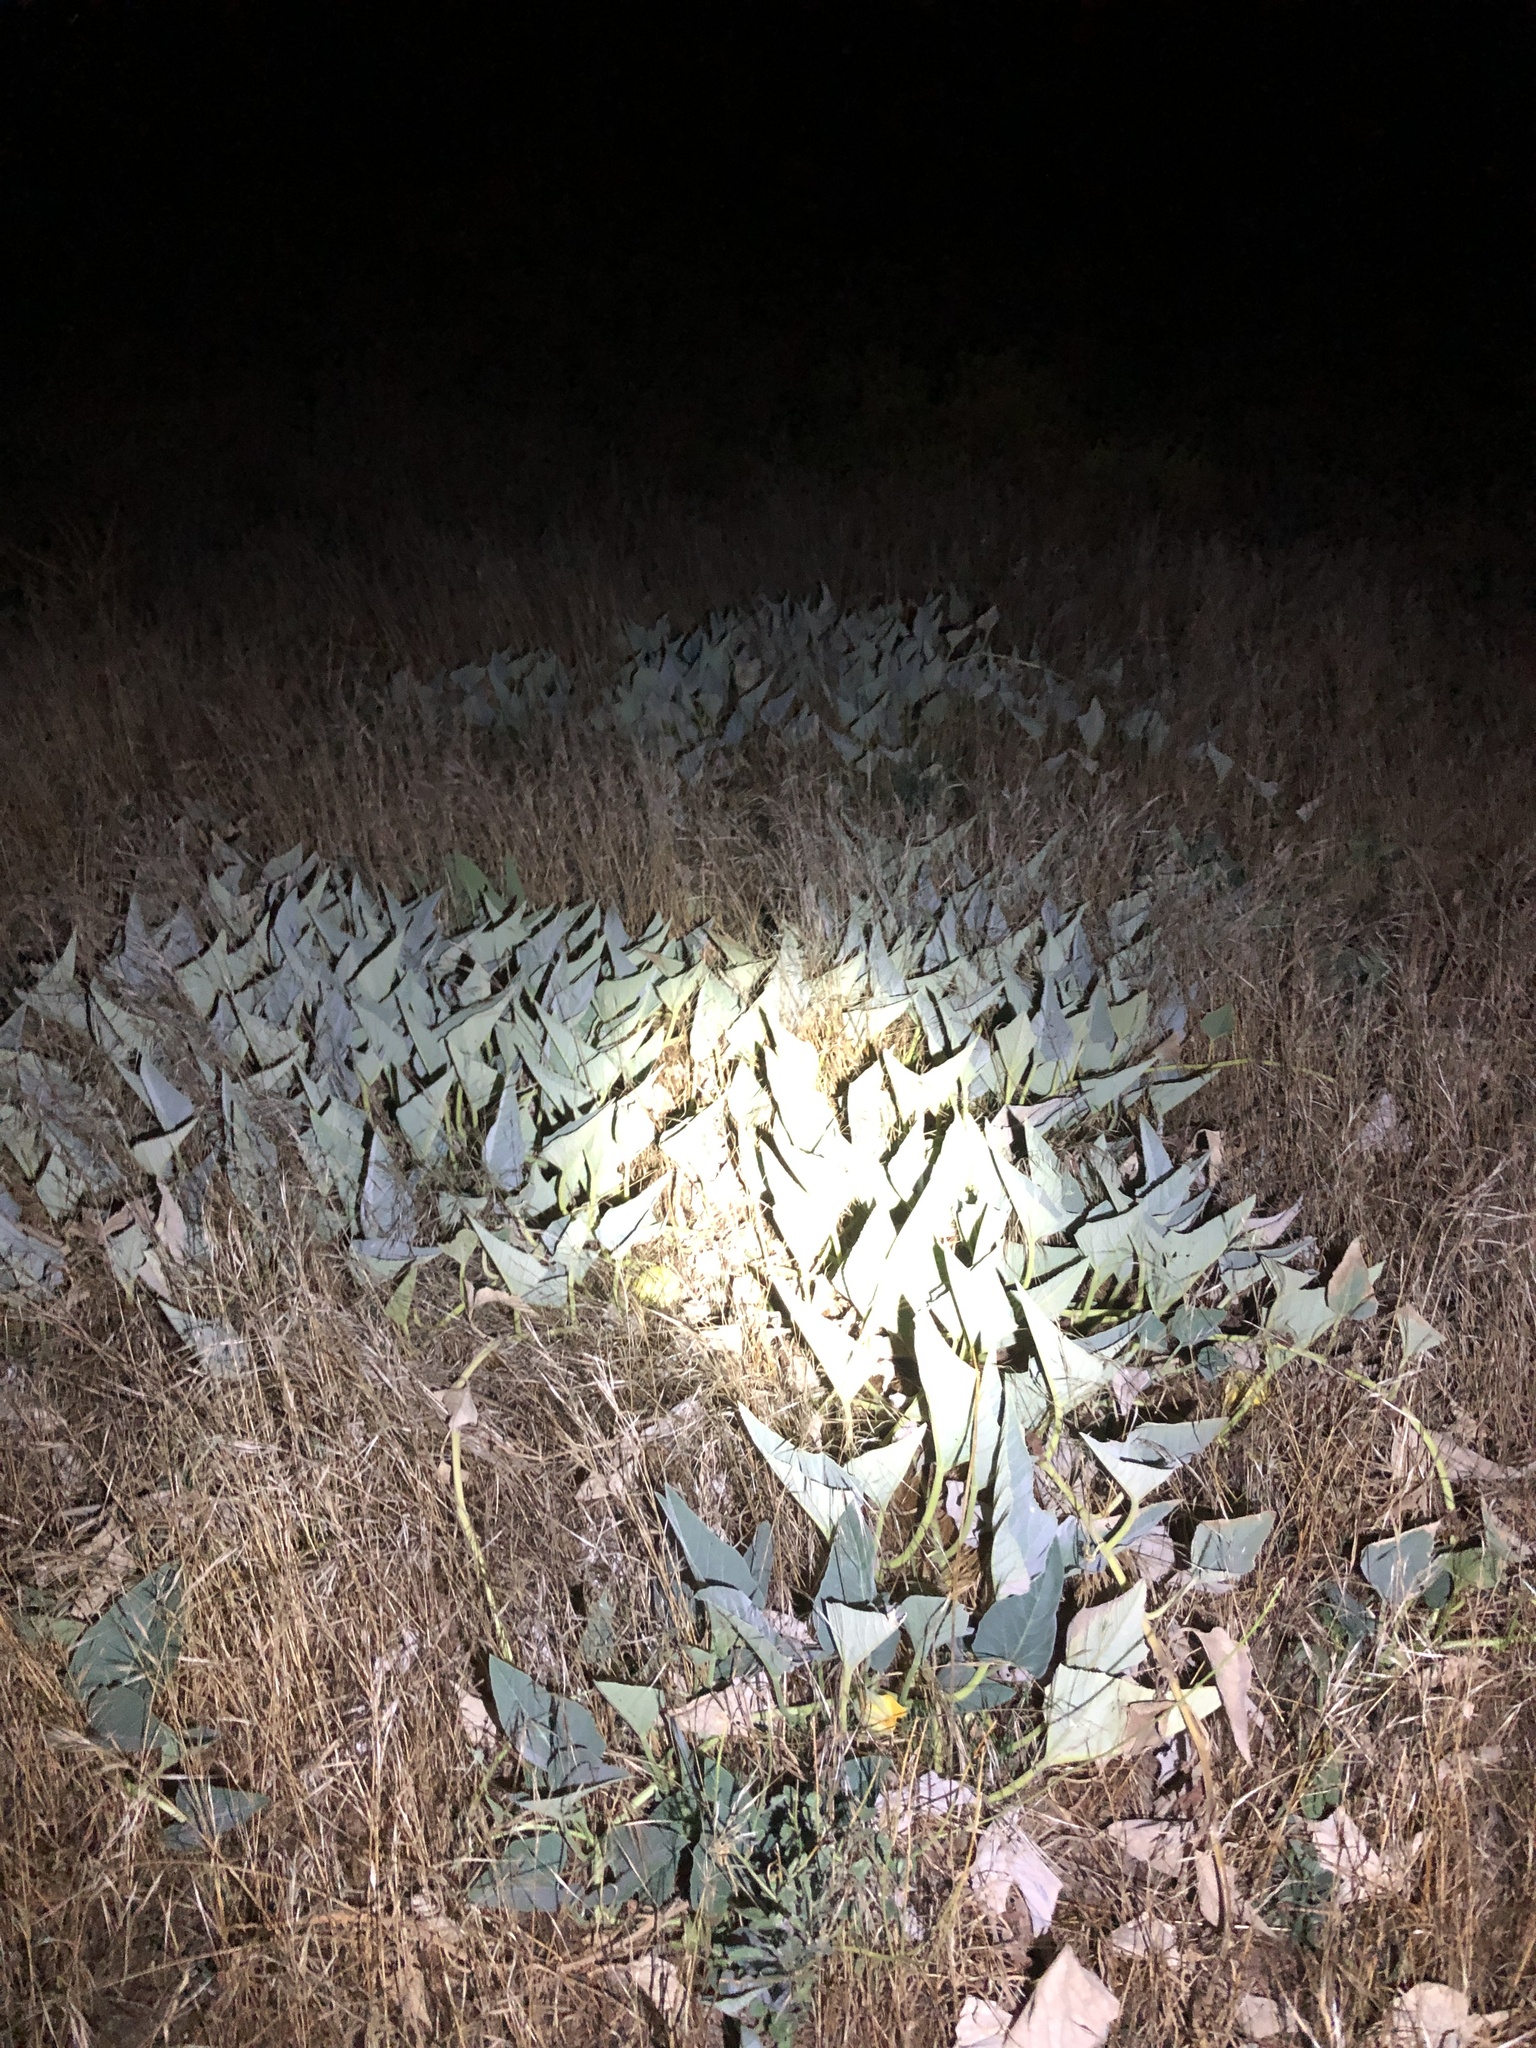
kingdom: Plantae
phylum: Tracheophyta
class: Magnoliopsida
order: Cucurbitales
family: Cucurbitaceae
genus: Cucurbita
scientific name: Cucurbita foetidissima
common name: Buffalo gourd
